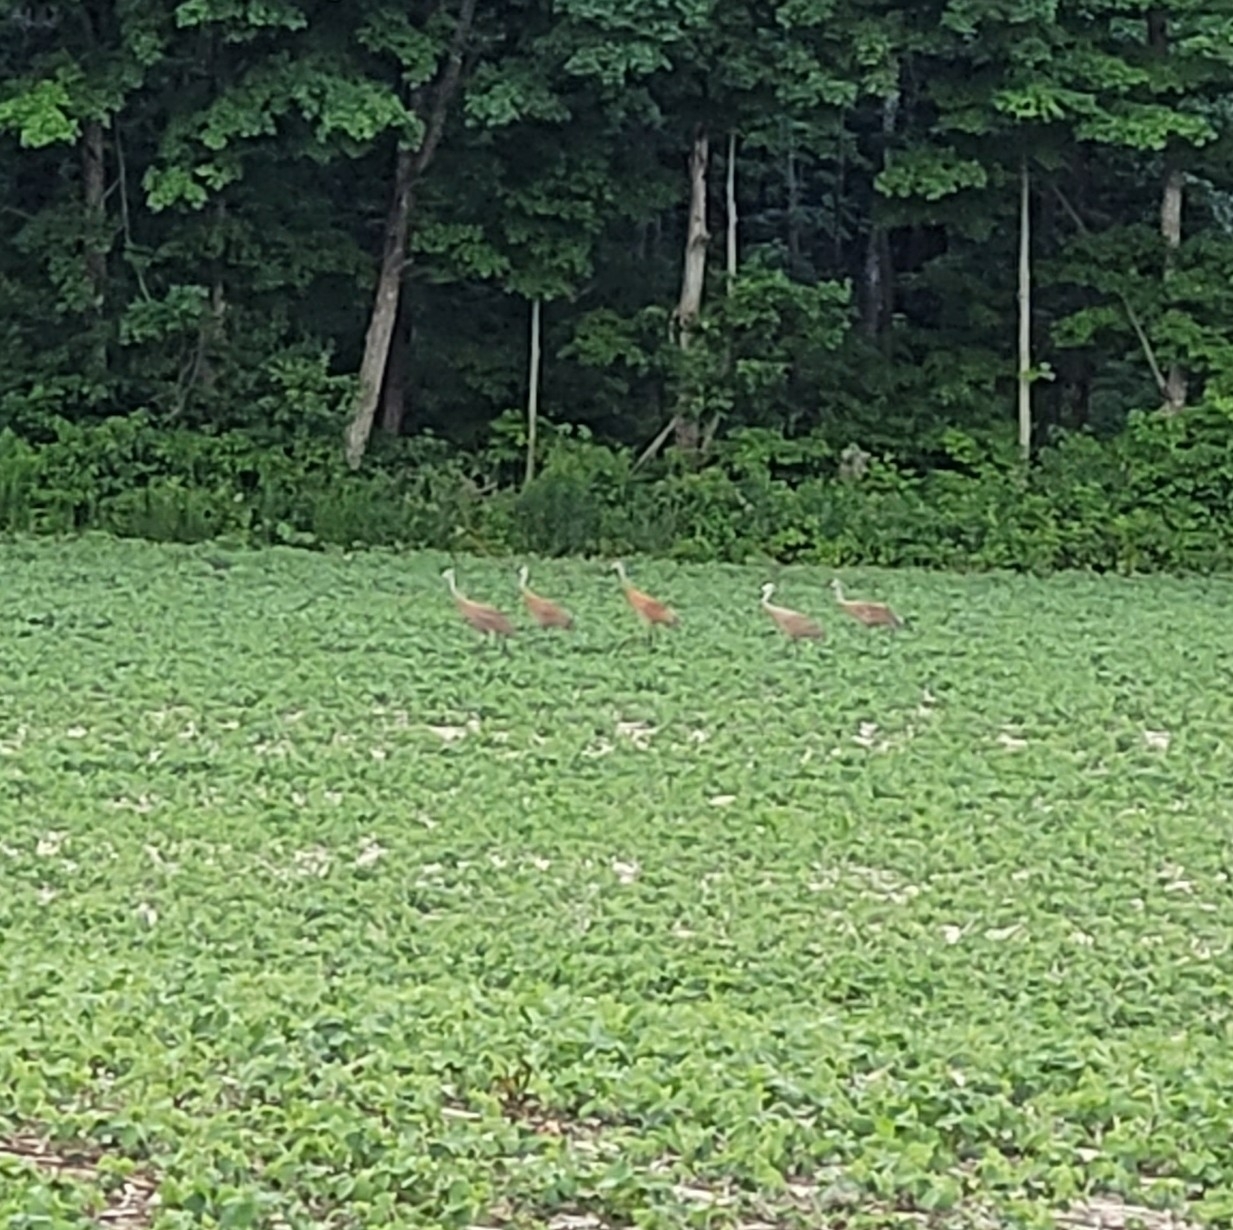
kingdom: Animalia
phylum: Chordata
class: Aves
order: Gruiformes
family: Gruidae
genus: Grus
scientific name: Grus canadensis
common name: Sandhill crane
